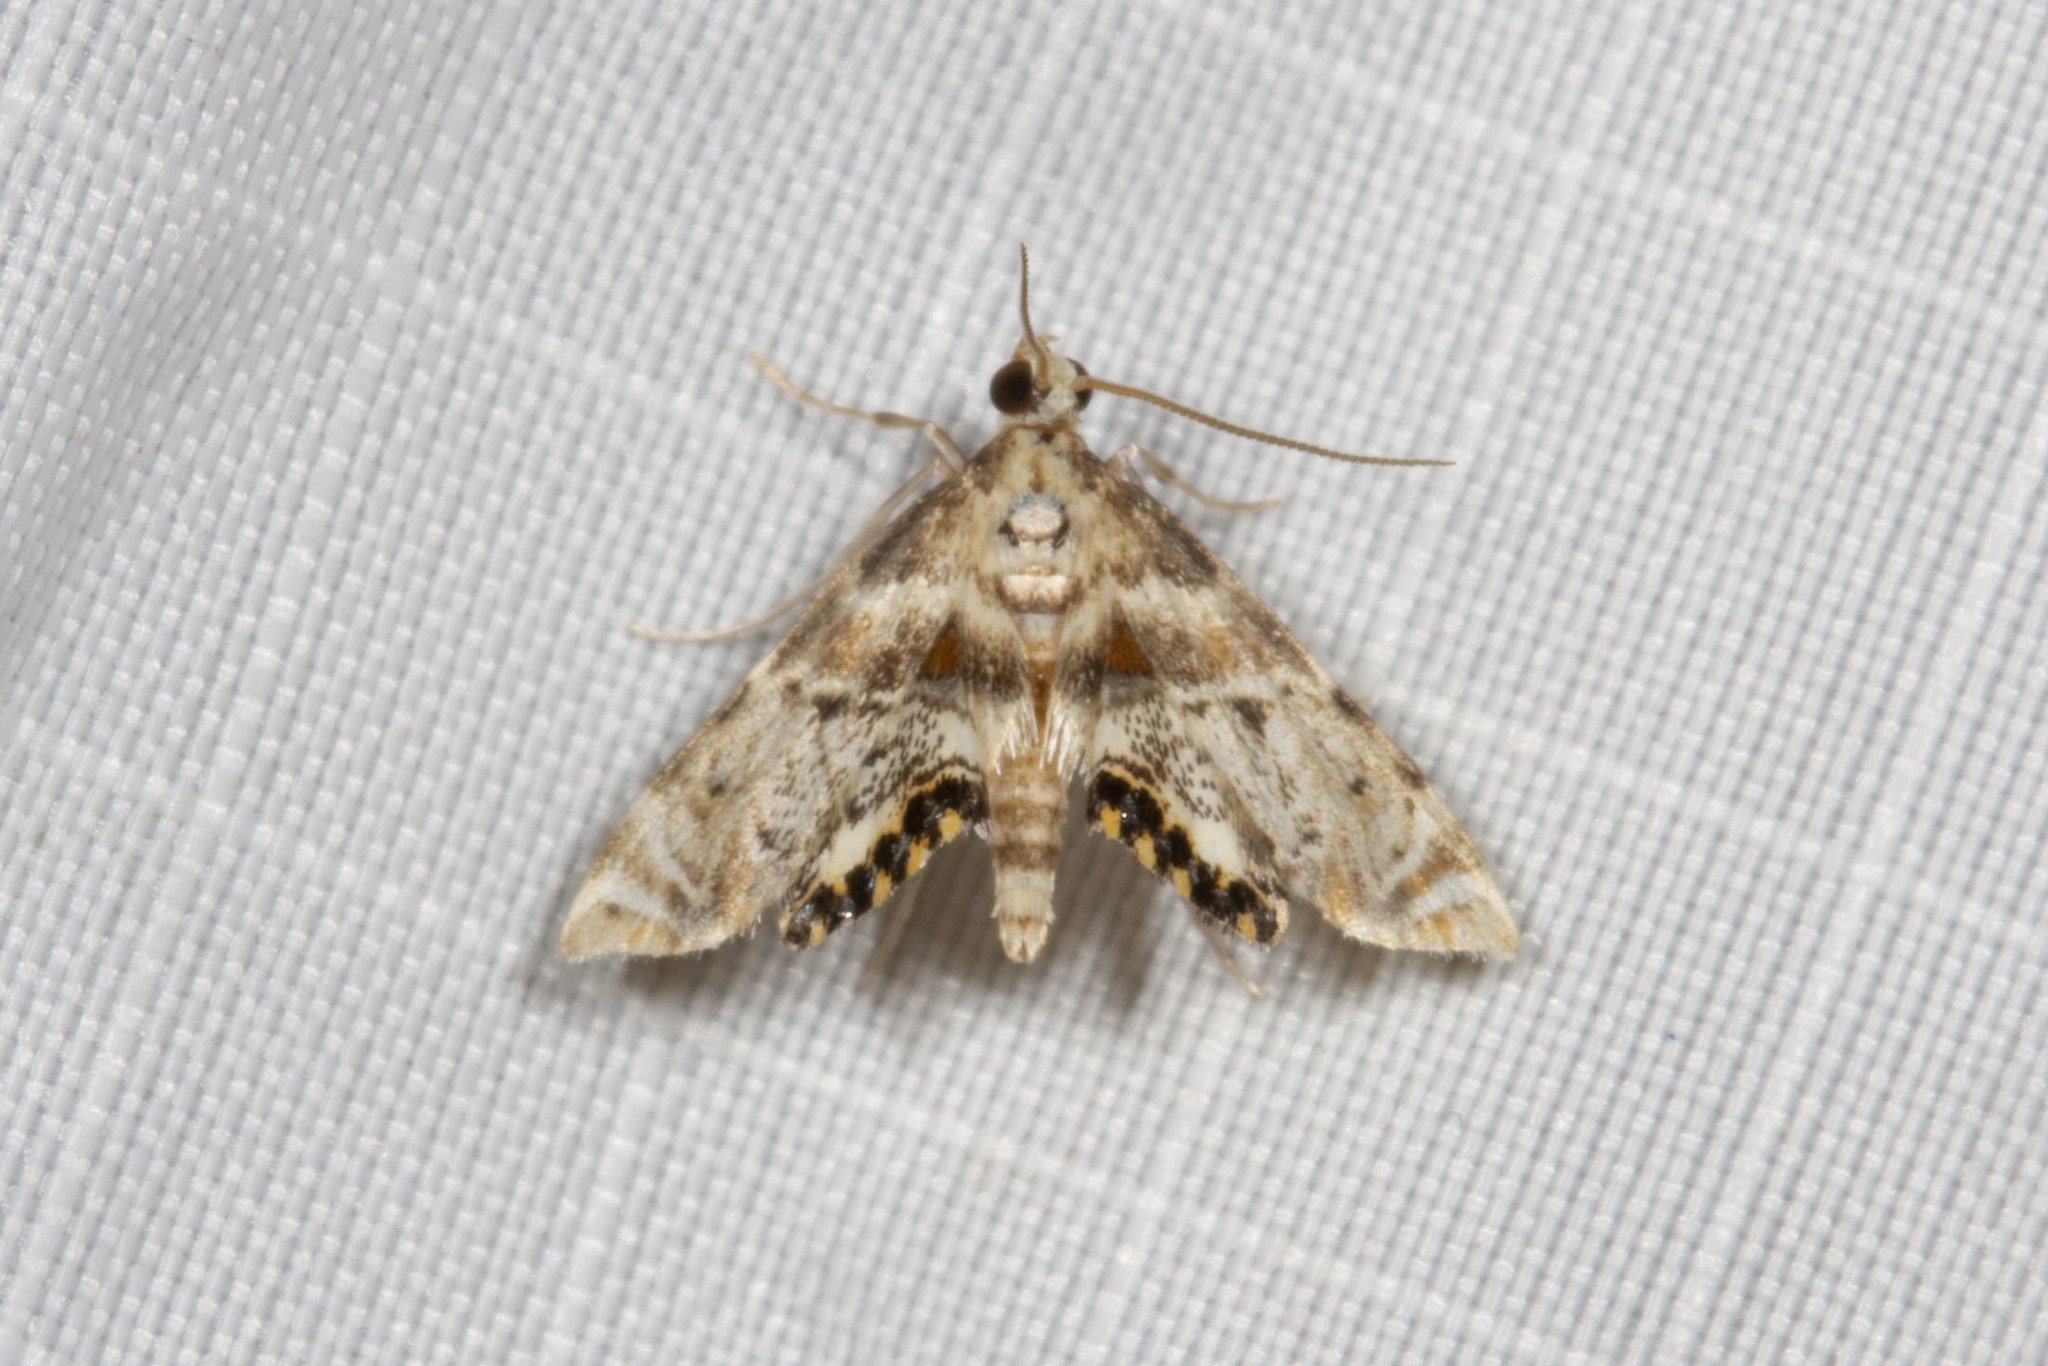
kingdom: Animalia
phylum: Arthropoda
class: Insecta
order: Lepidoptera
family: Crambidae
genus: Petrophila
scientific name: Petrophila fulicalis
